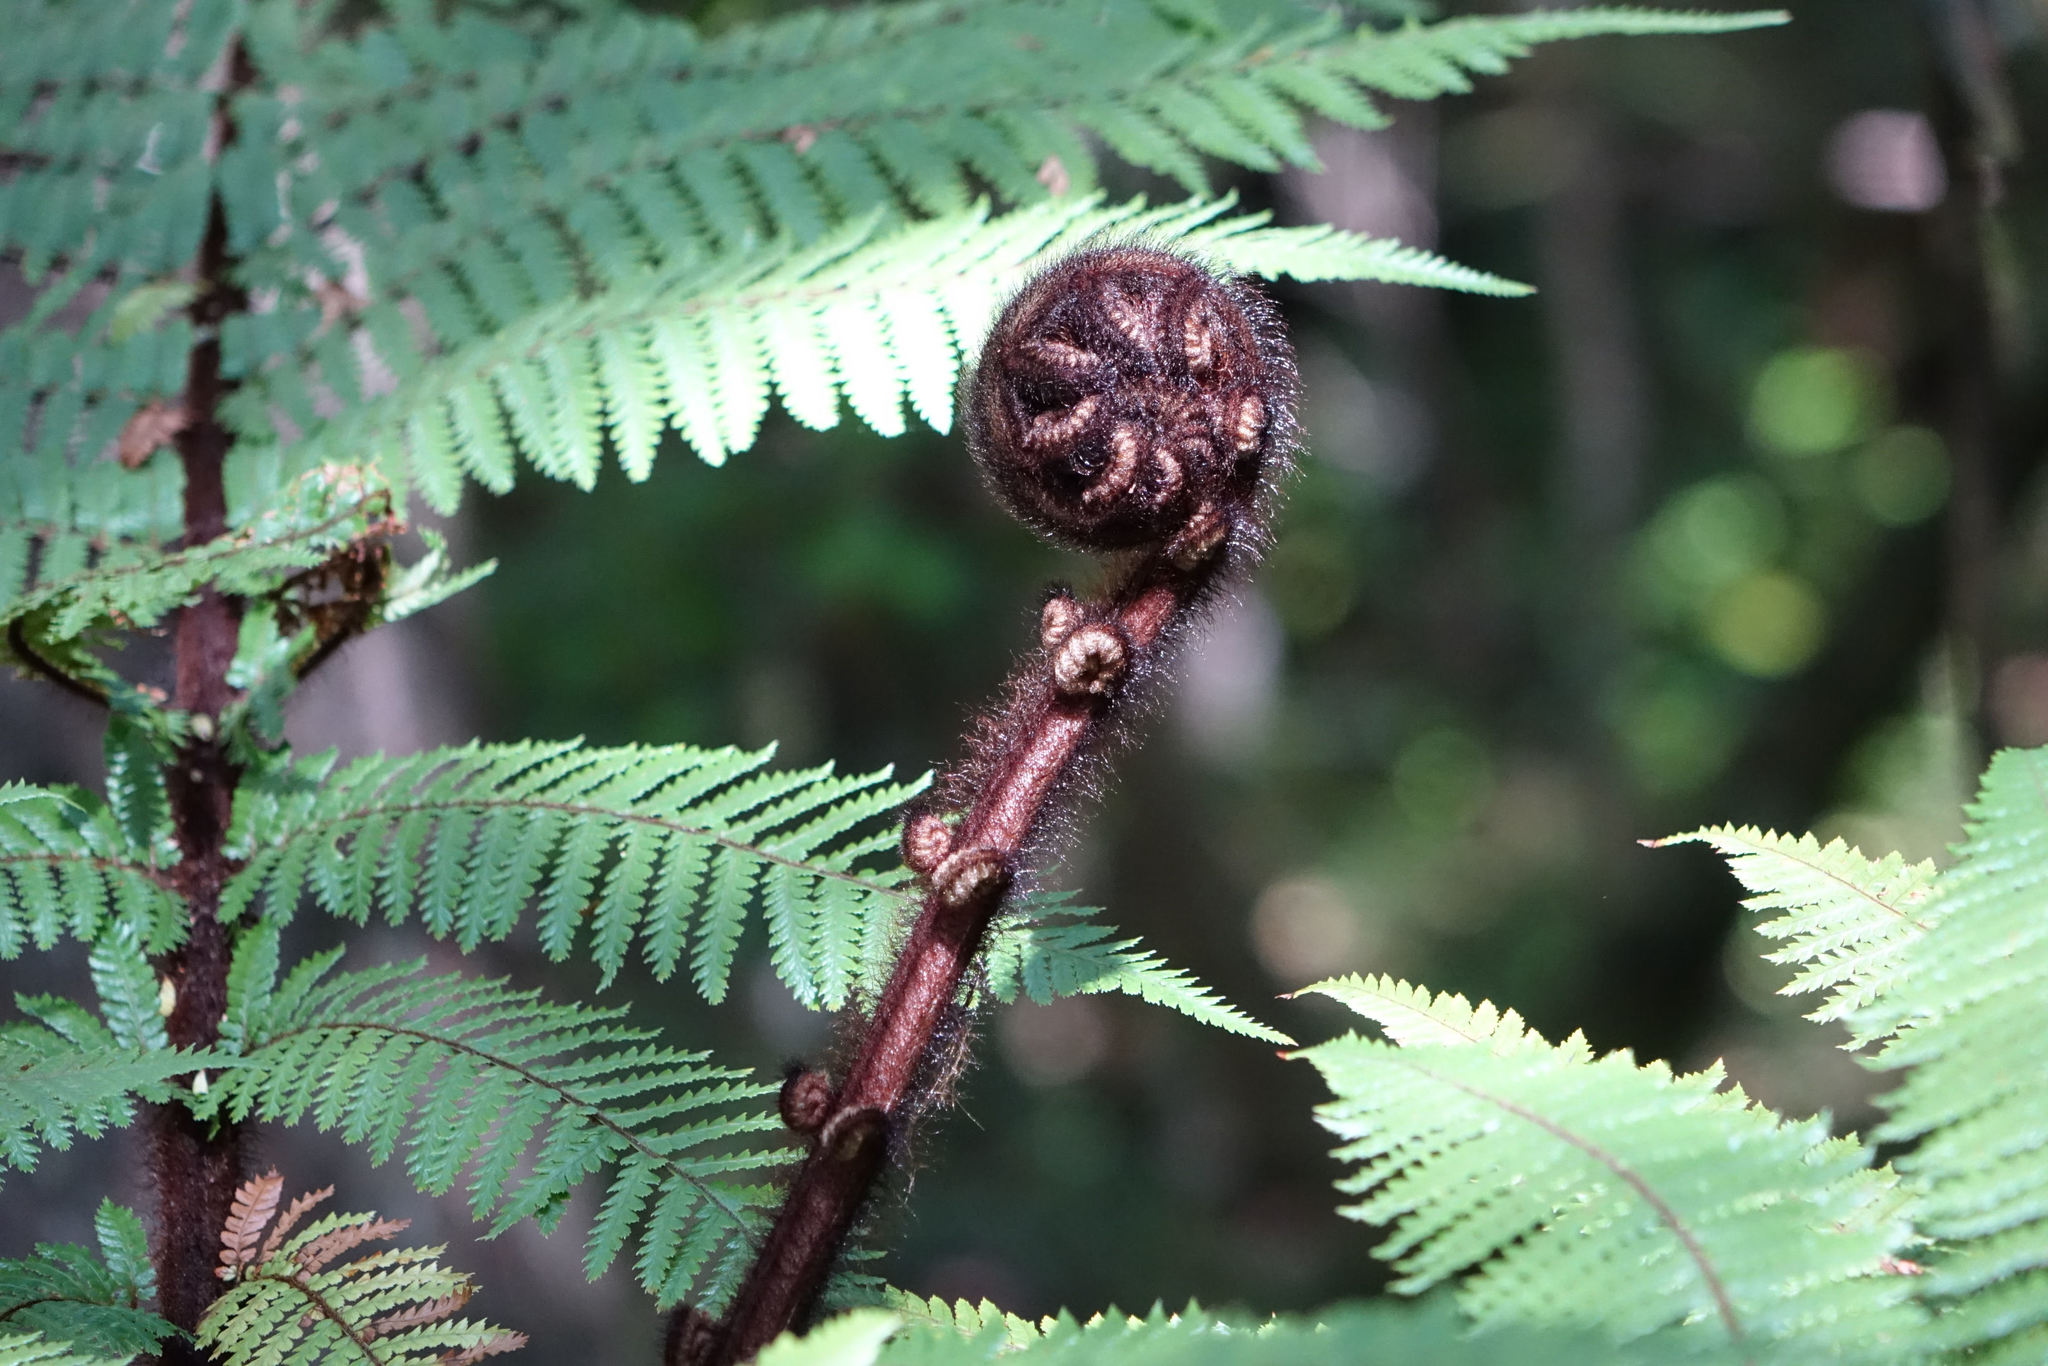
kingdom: Plantae
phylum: Tracheophyta
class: Polypodiopsida
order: Cyatheales
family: Dicksoniaceae
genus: Dicksonia
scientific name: Dicksonia squarrosa
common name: Hard treefern
